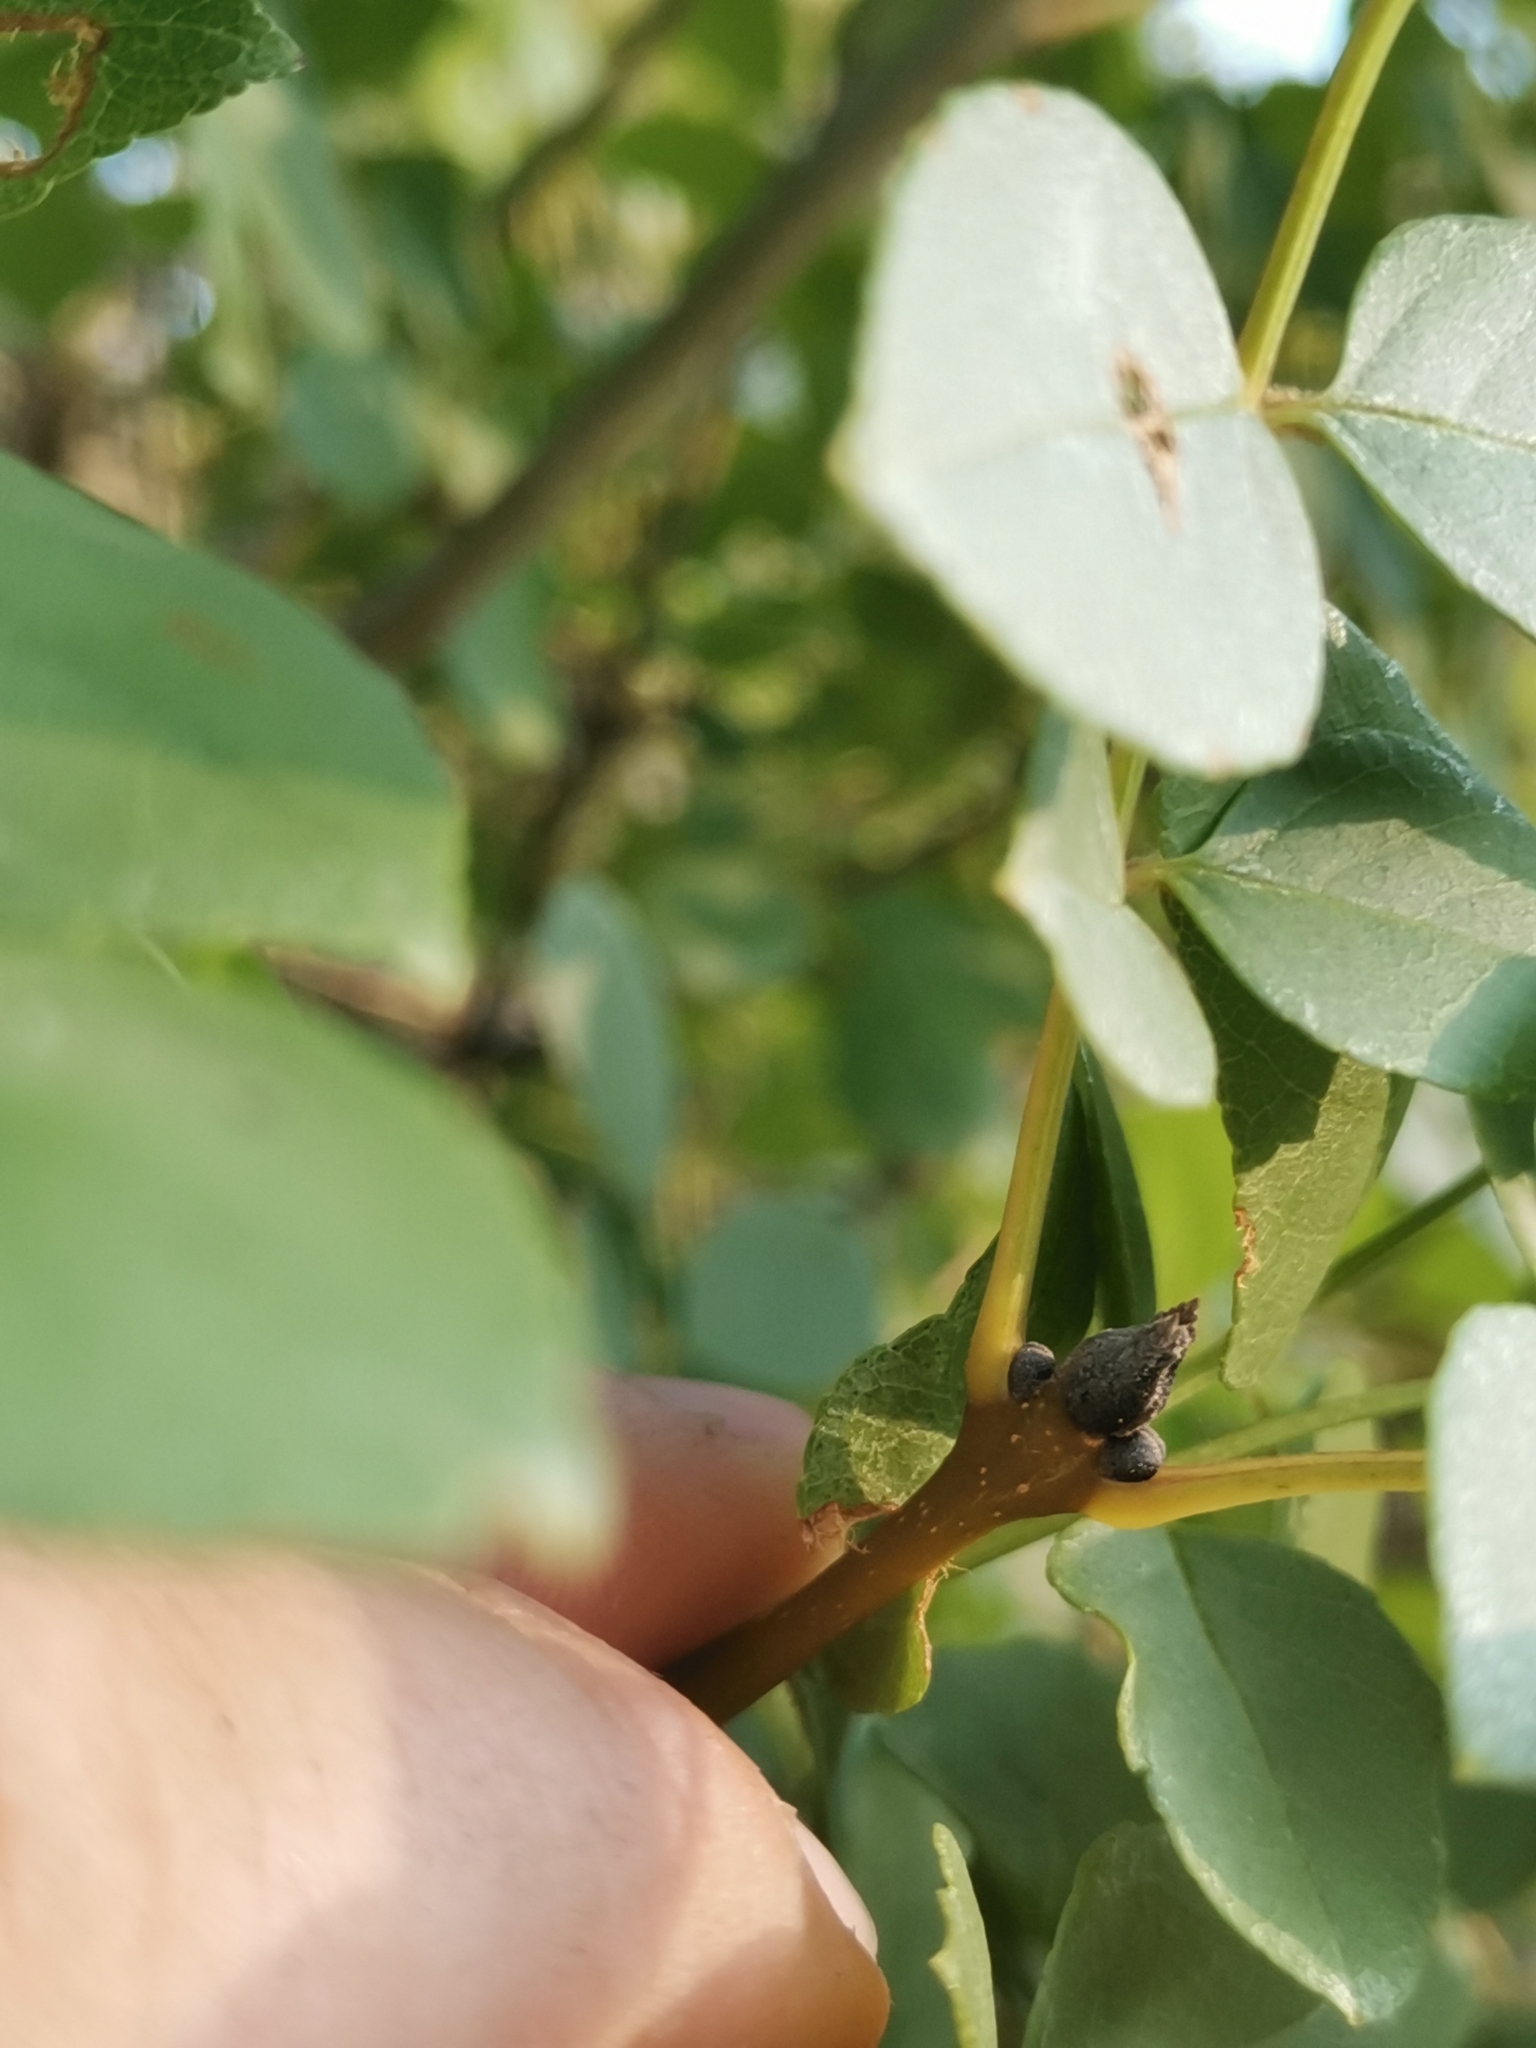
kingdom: Plantae
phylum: Tracheophyta
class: Magnoliopsida
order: Lamiales
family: Oleaceae
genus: Fraxinus
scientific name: Fraxinus ornus
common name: Manna ash
